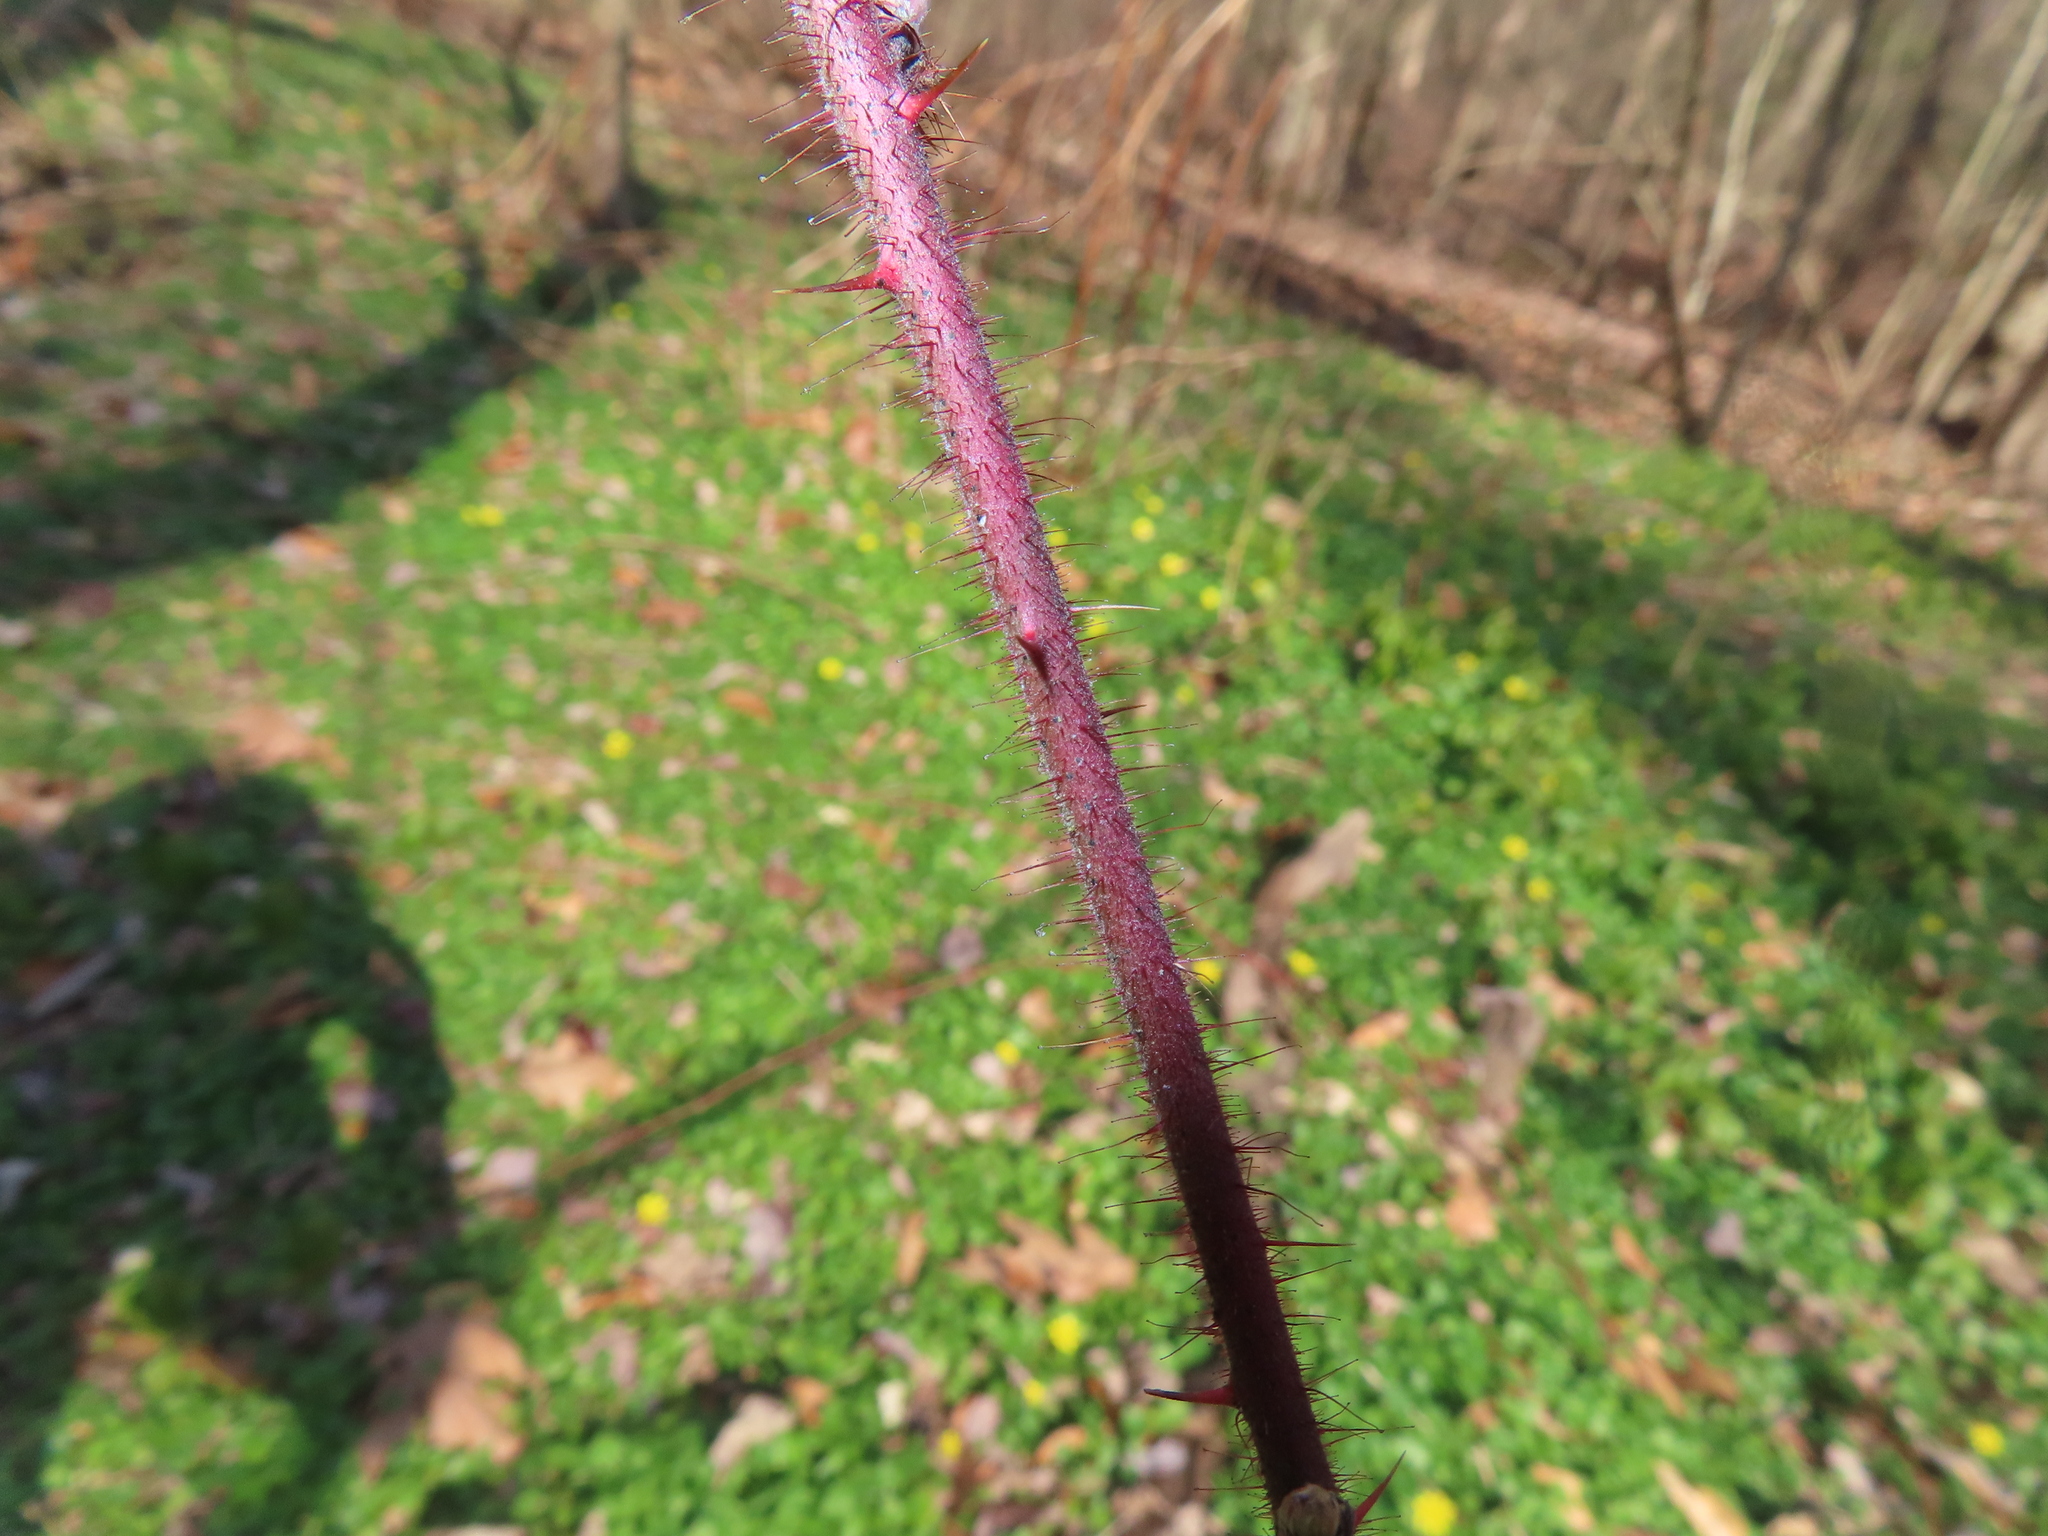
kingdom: Plantae
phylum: Tracheophyta
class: Magnoliopsida
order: Rosales
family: Rosaceae
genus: Rubus
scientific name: Rubus phoenicolasius
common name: Japanese wineberry
